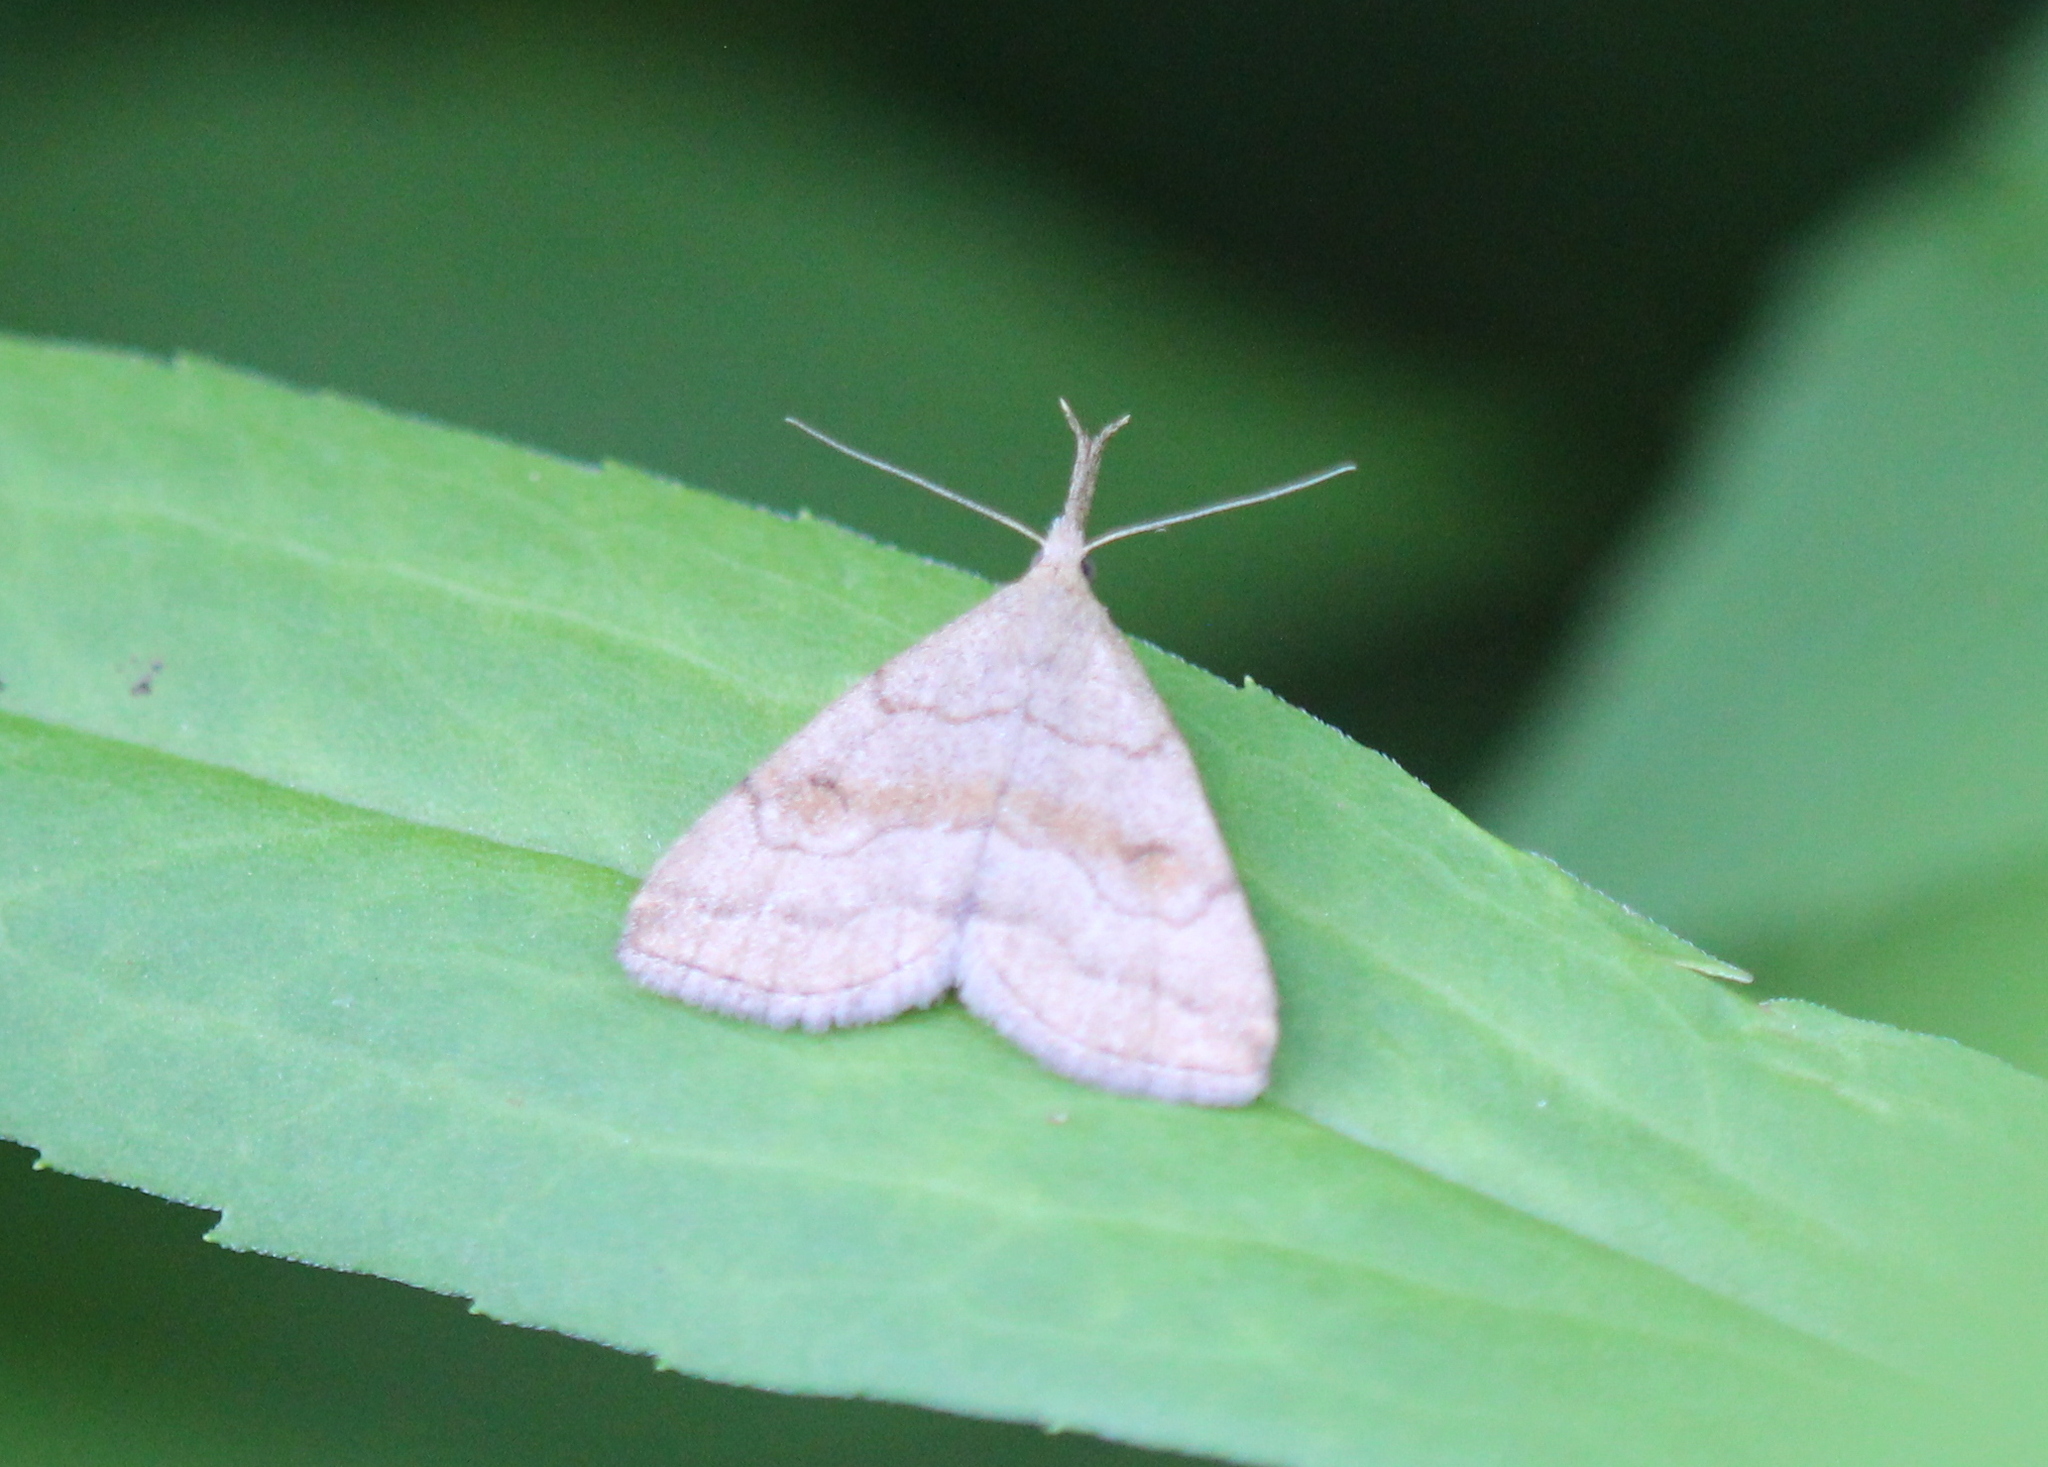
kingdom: Animalia
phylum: Arthropoda
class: Insecta
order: Lepidoptera
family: Erebidae
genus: Phalaenostola
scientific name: Phalaenostola metonalis
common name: Pale phalaenostola moth
